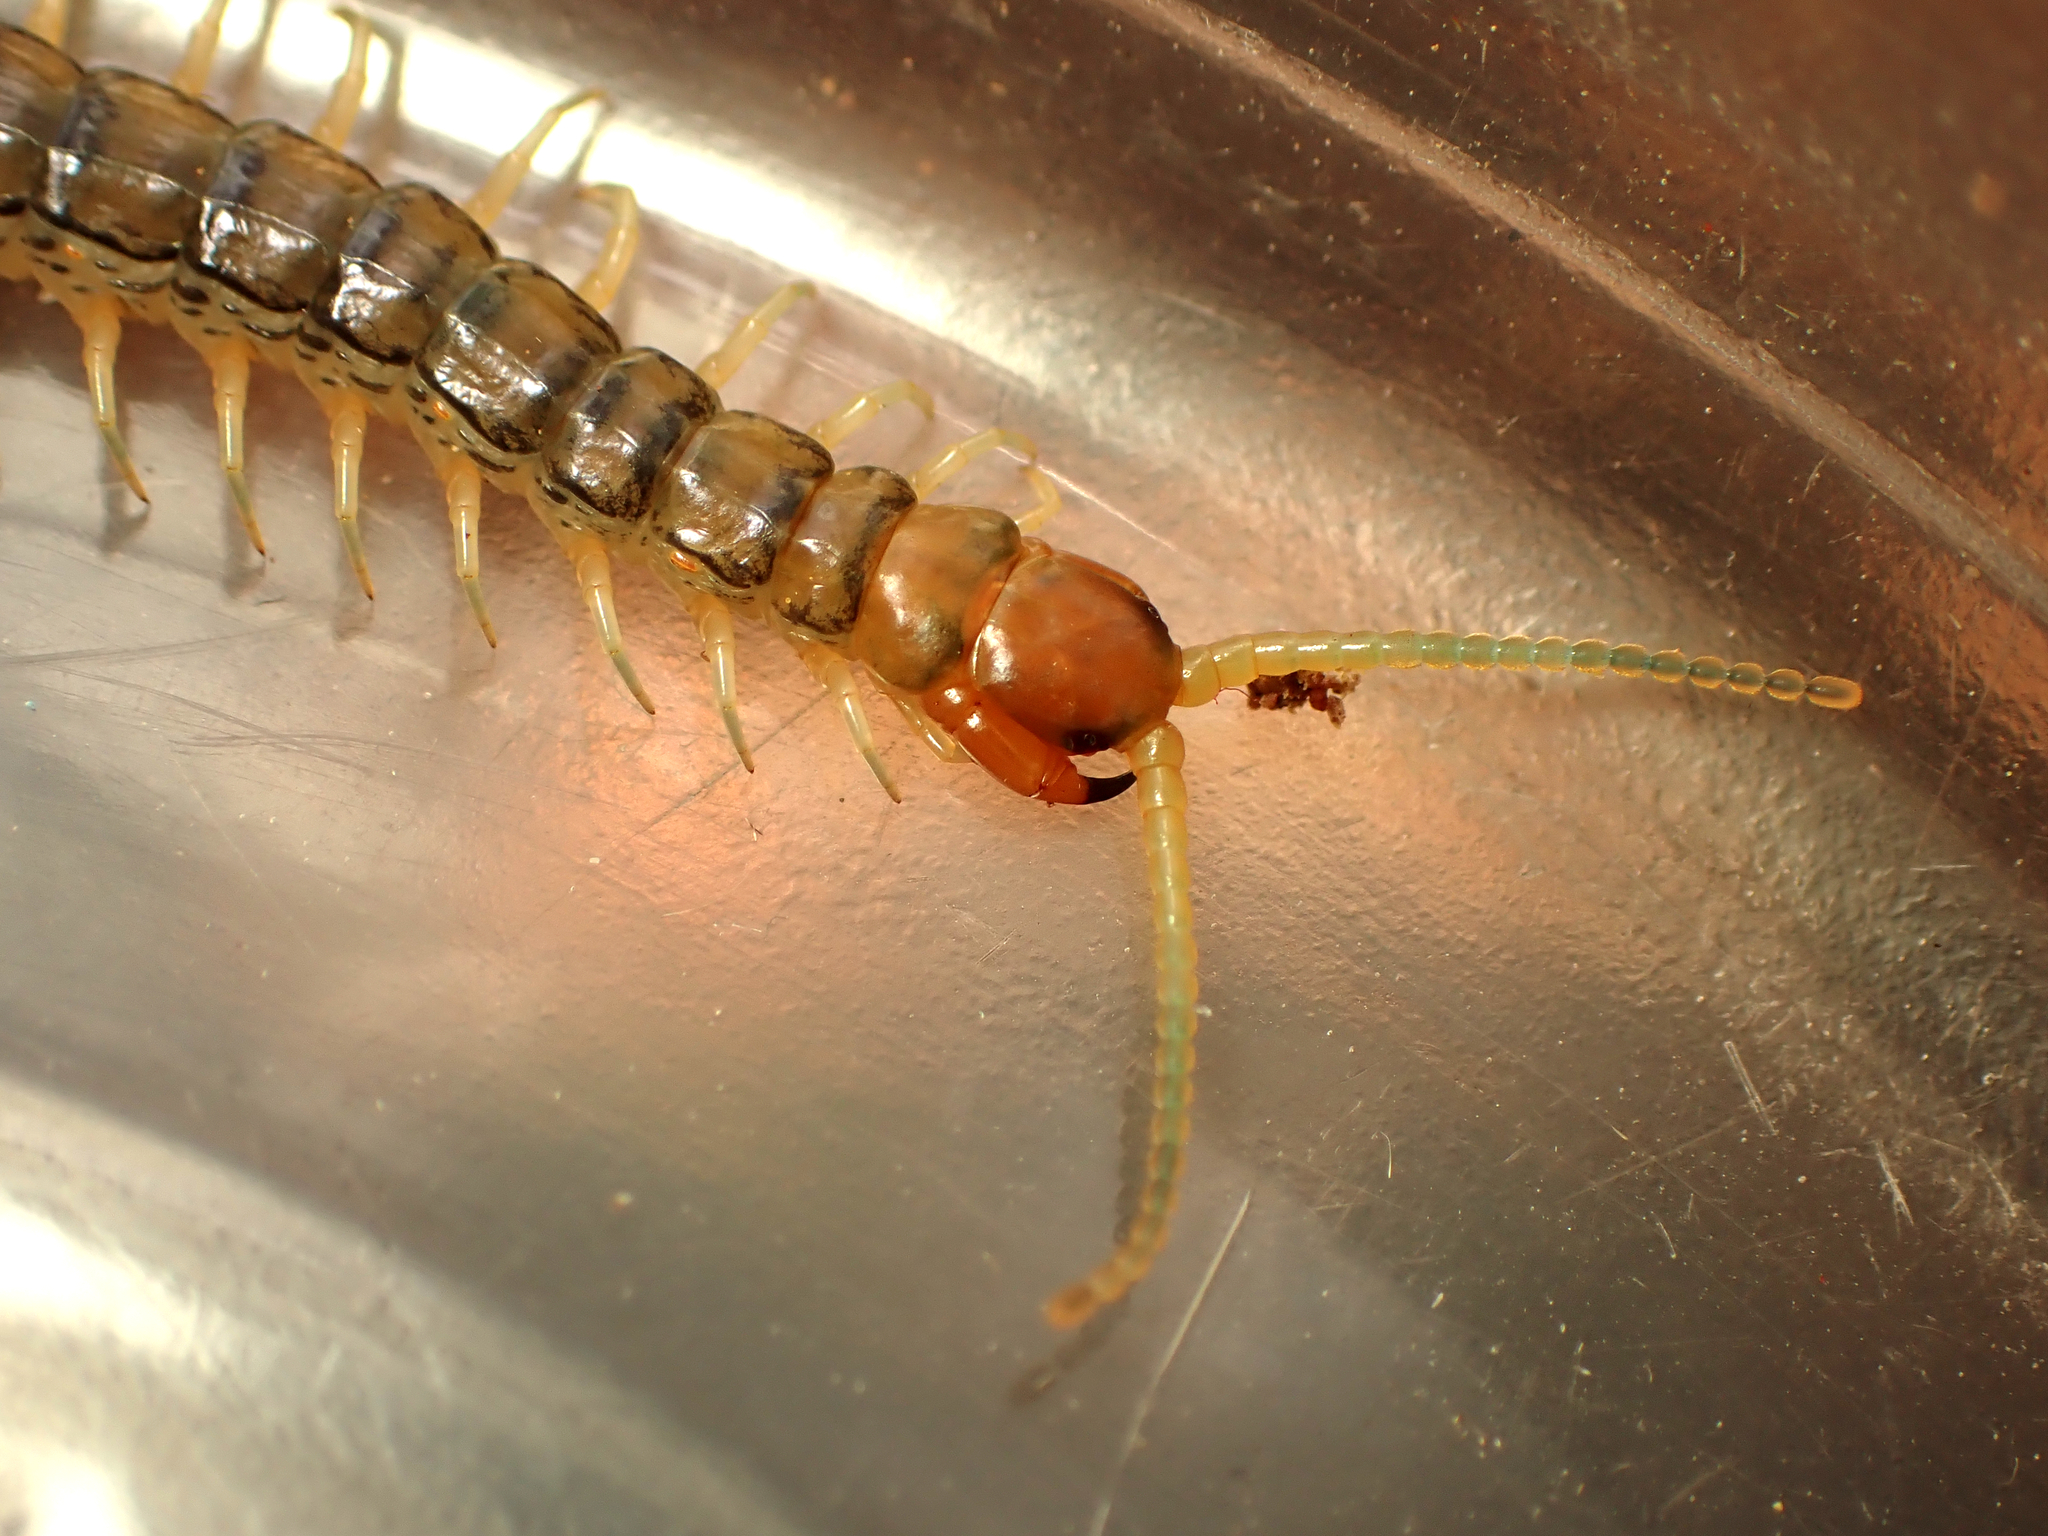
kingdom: Animalia
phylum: Arthropoda
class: Chilopoda
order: Scolopendromorpha
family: Scolopendridae
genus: Cormocephalus
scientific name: Cormocephalus rubriceps
